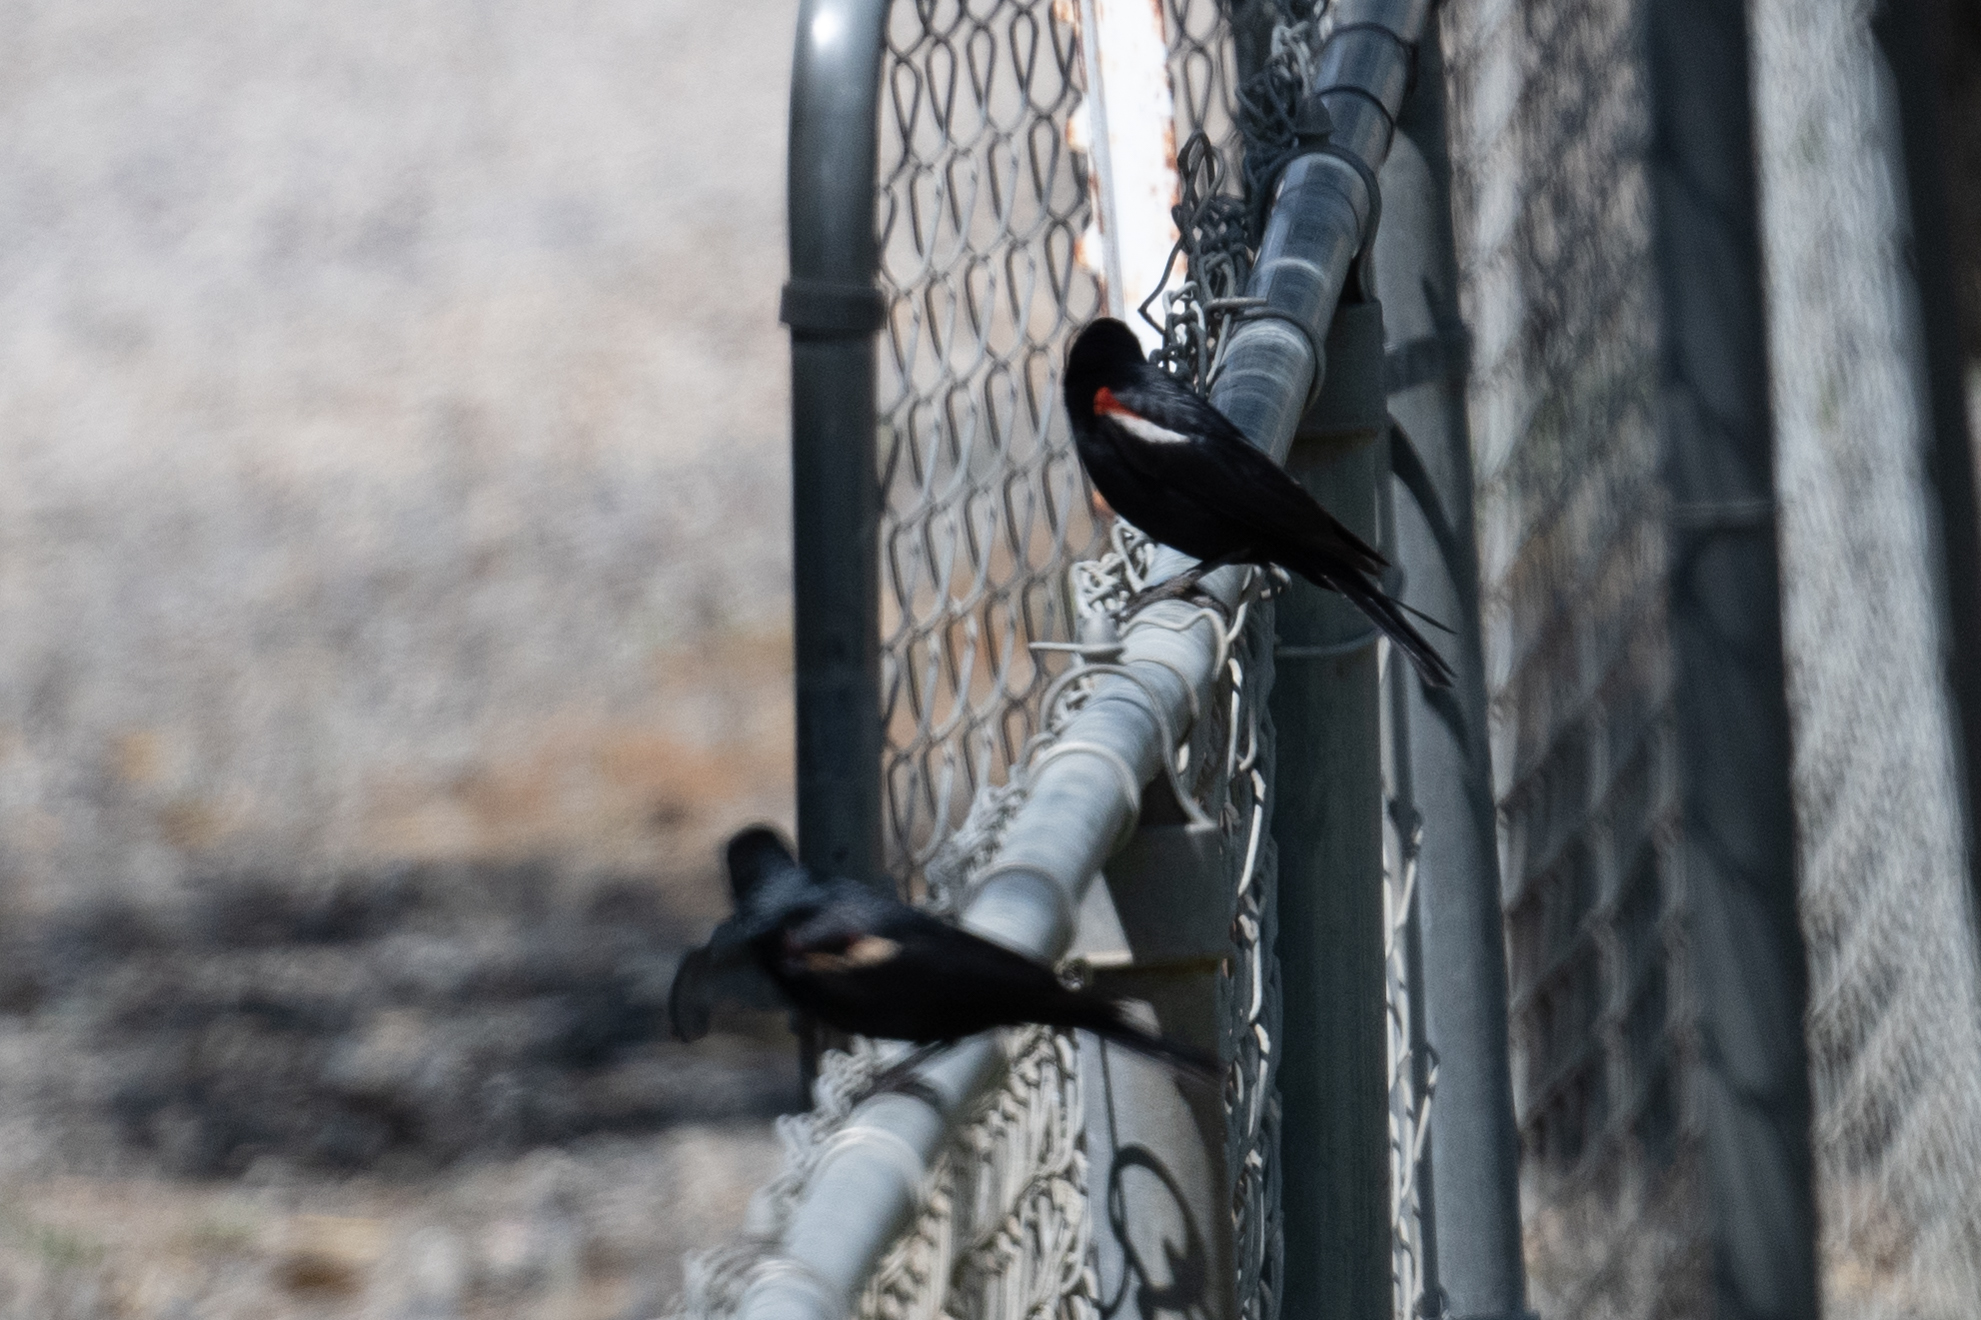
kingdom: Animalia
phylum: Chordata
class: Aves
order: Passeriformes
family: Icteridae
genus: Agelaius
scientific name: Agelaius tricolor
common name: Tricolored blackbird
